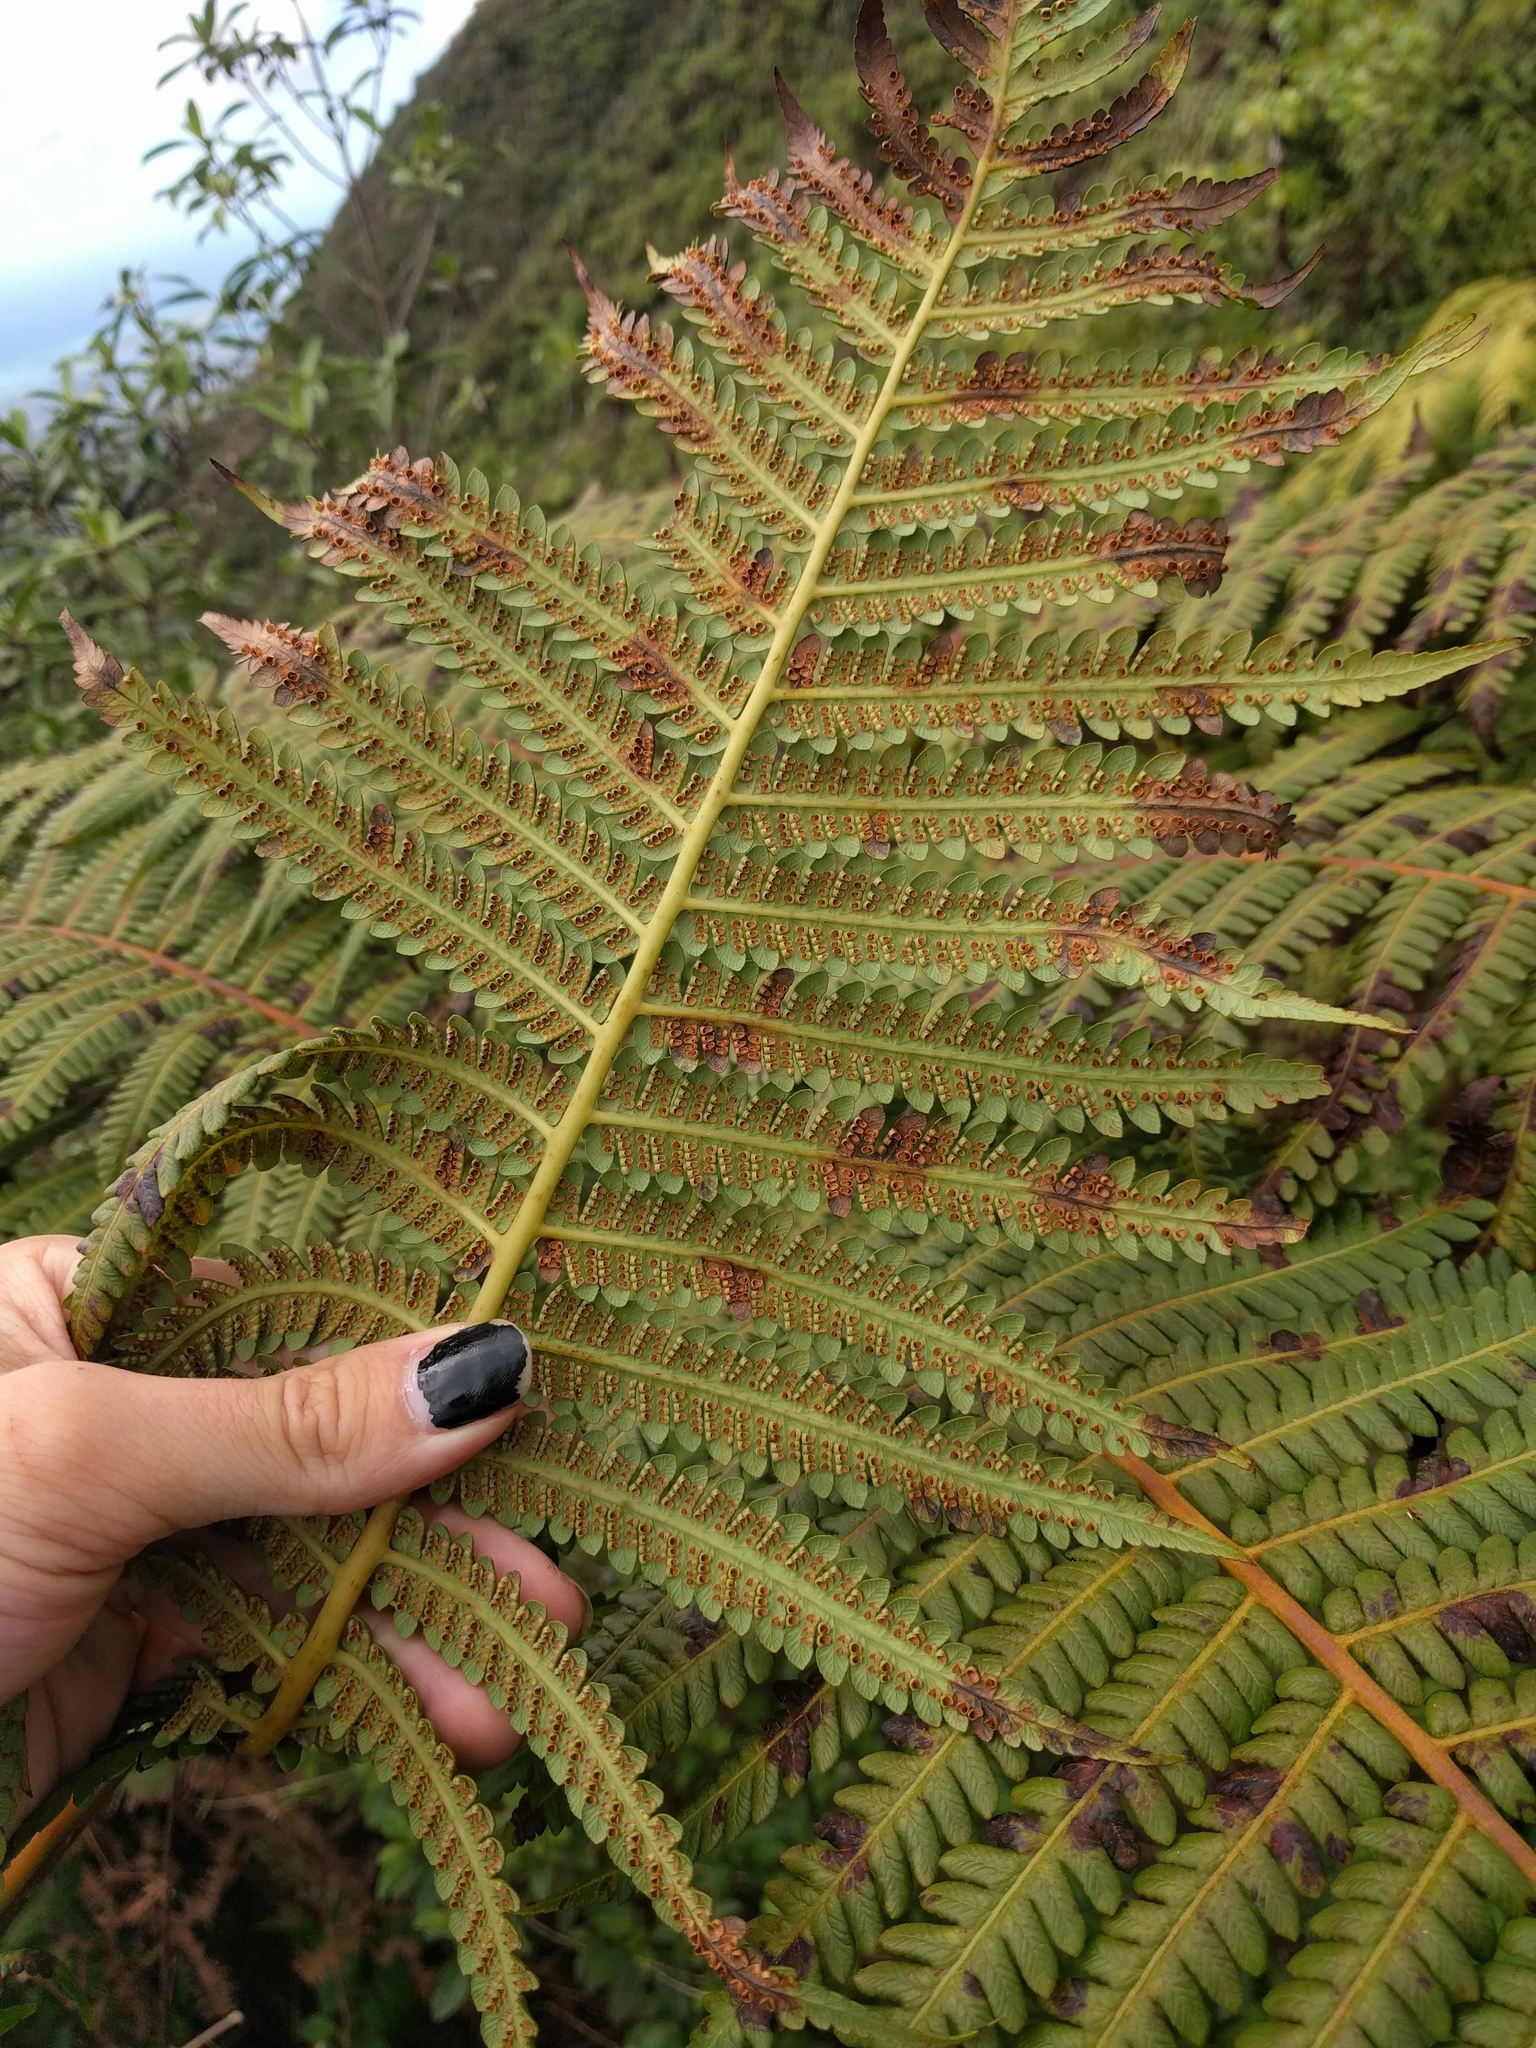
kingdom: Plantae
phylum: Tracheophyta
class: Polypodiopsida
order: Cyatheales
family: Cibotiaceae
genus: Cibotium
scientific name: Cibotium glaucum
